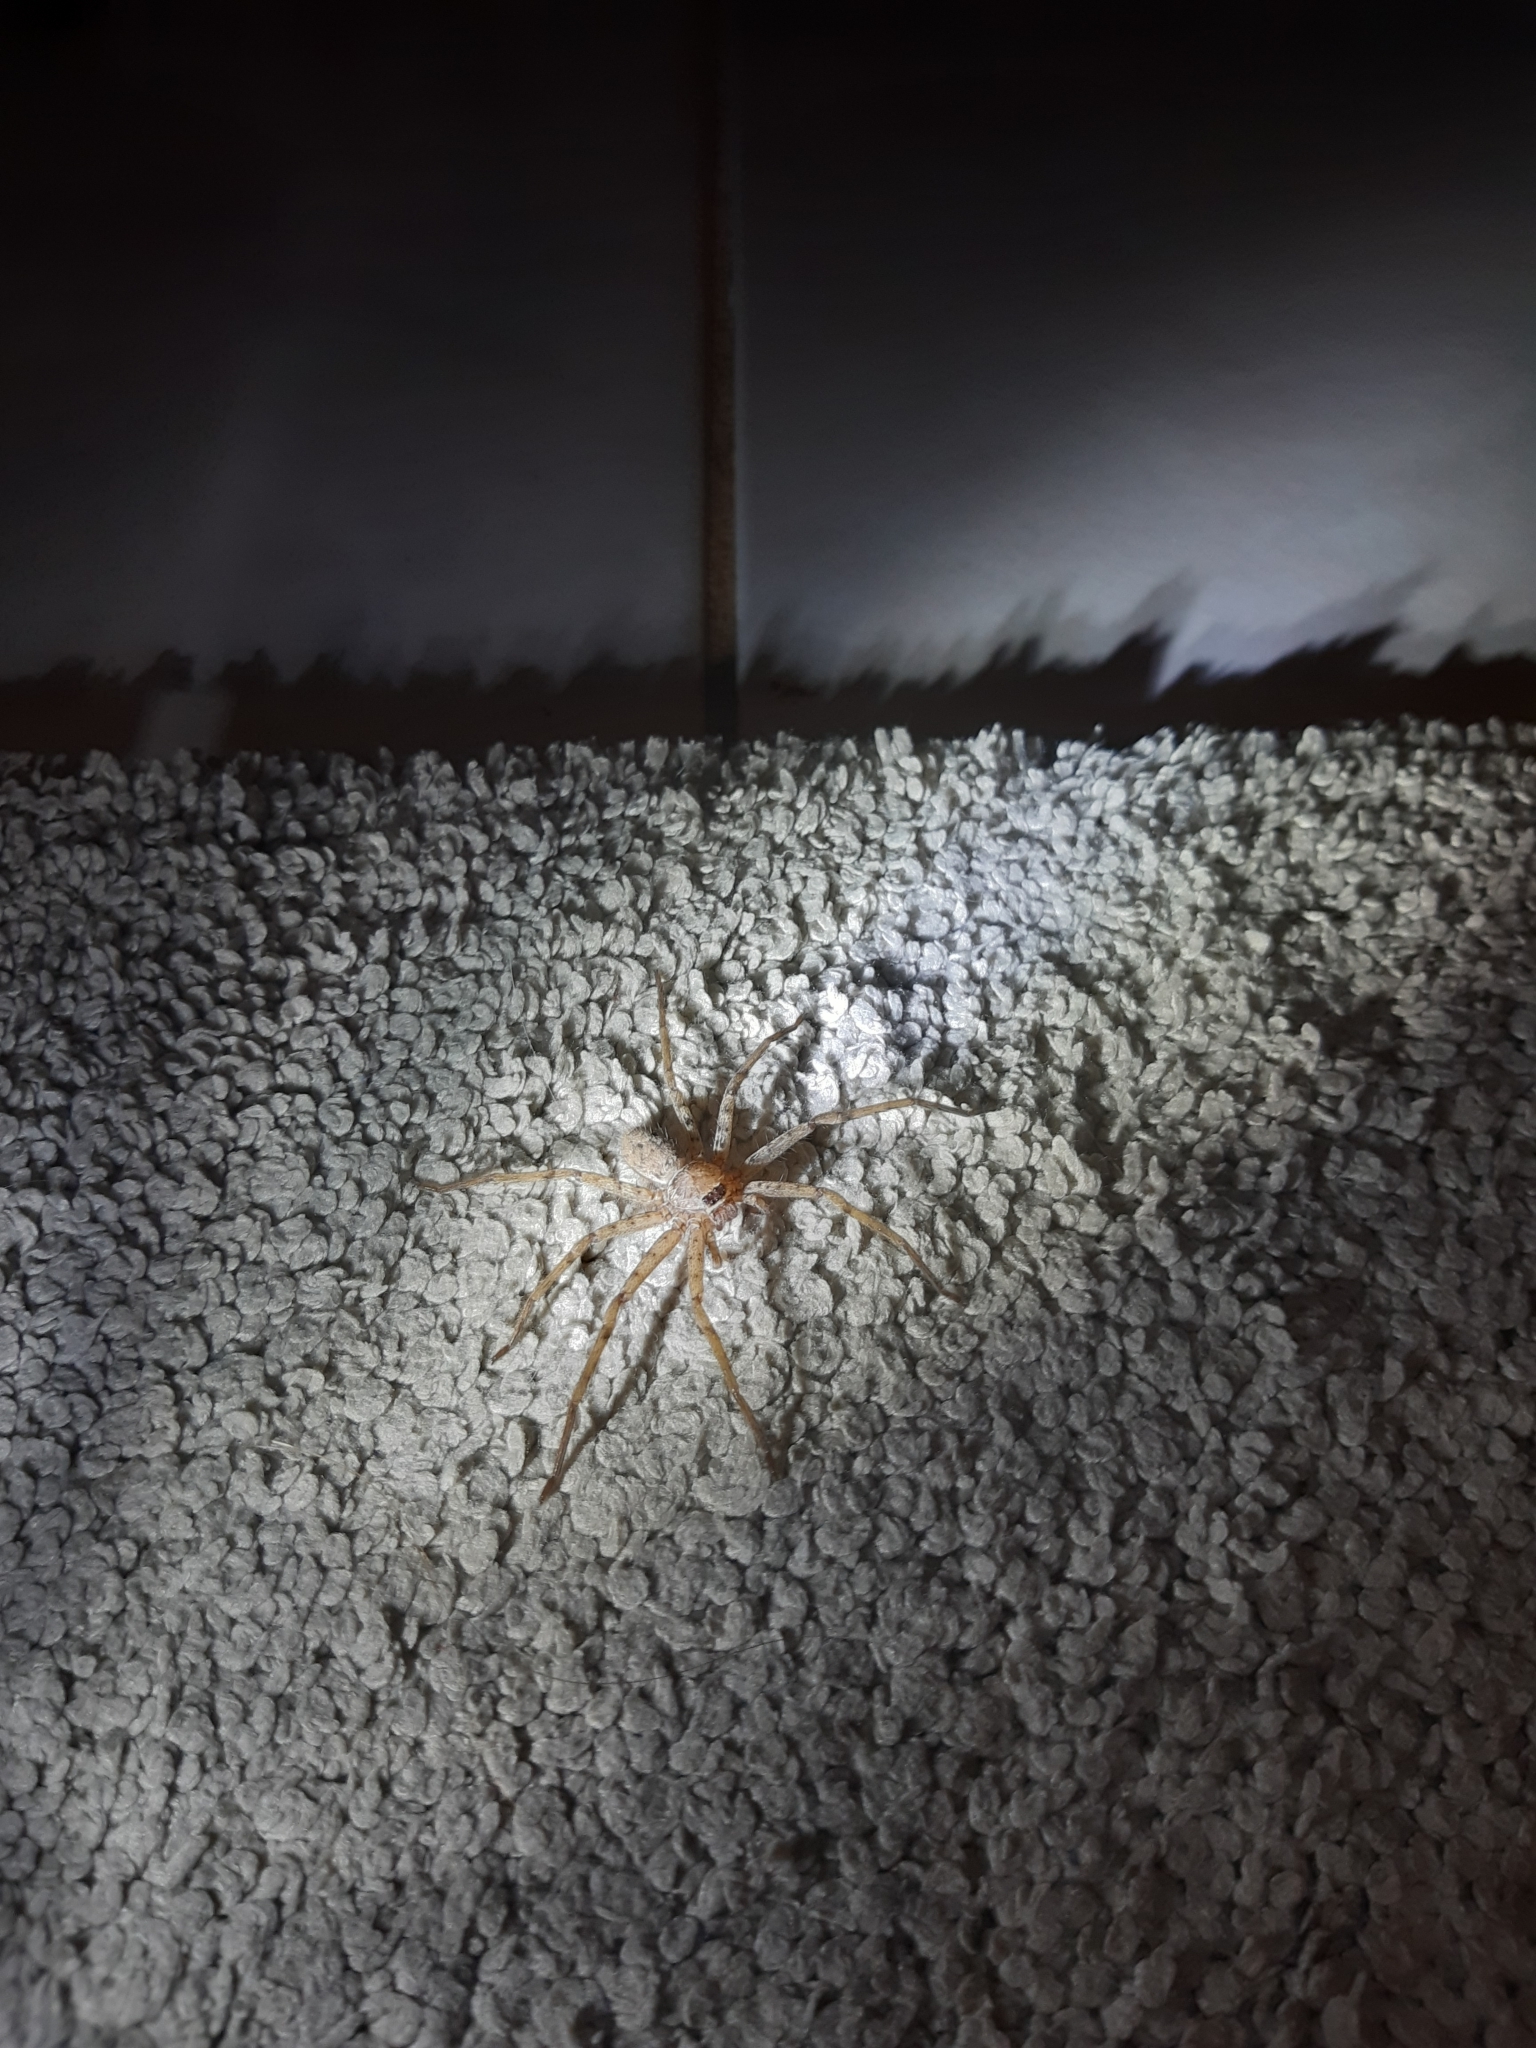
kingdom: Animalia
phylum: Arthropoda
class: Arachnida
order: Araneae
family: Sparassidae
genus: Heteropoda
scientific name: Heteropoda venatoria
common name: Huntsman spider
